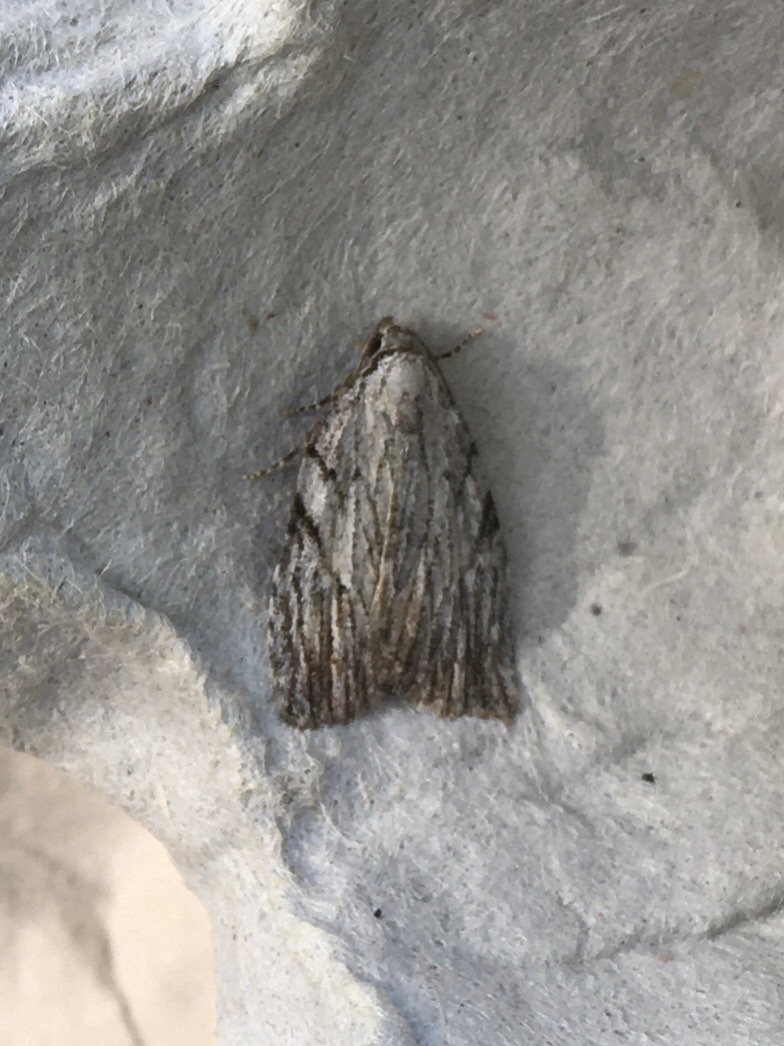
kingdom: Animalia
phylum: Arthropoda
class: Insecta
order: Lepidoptera
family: Noctuidae
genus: Balsa
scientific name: Balsa tristrigella
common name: Three-lined balsa moth
